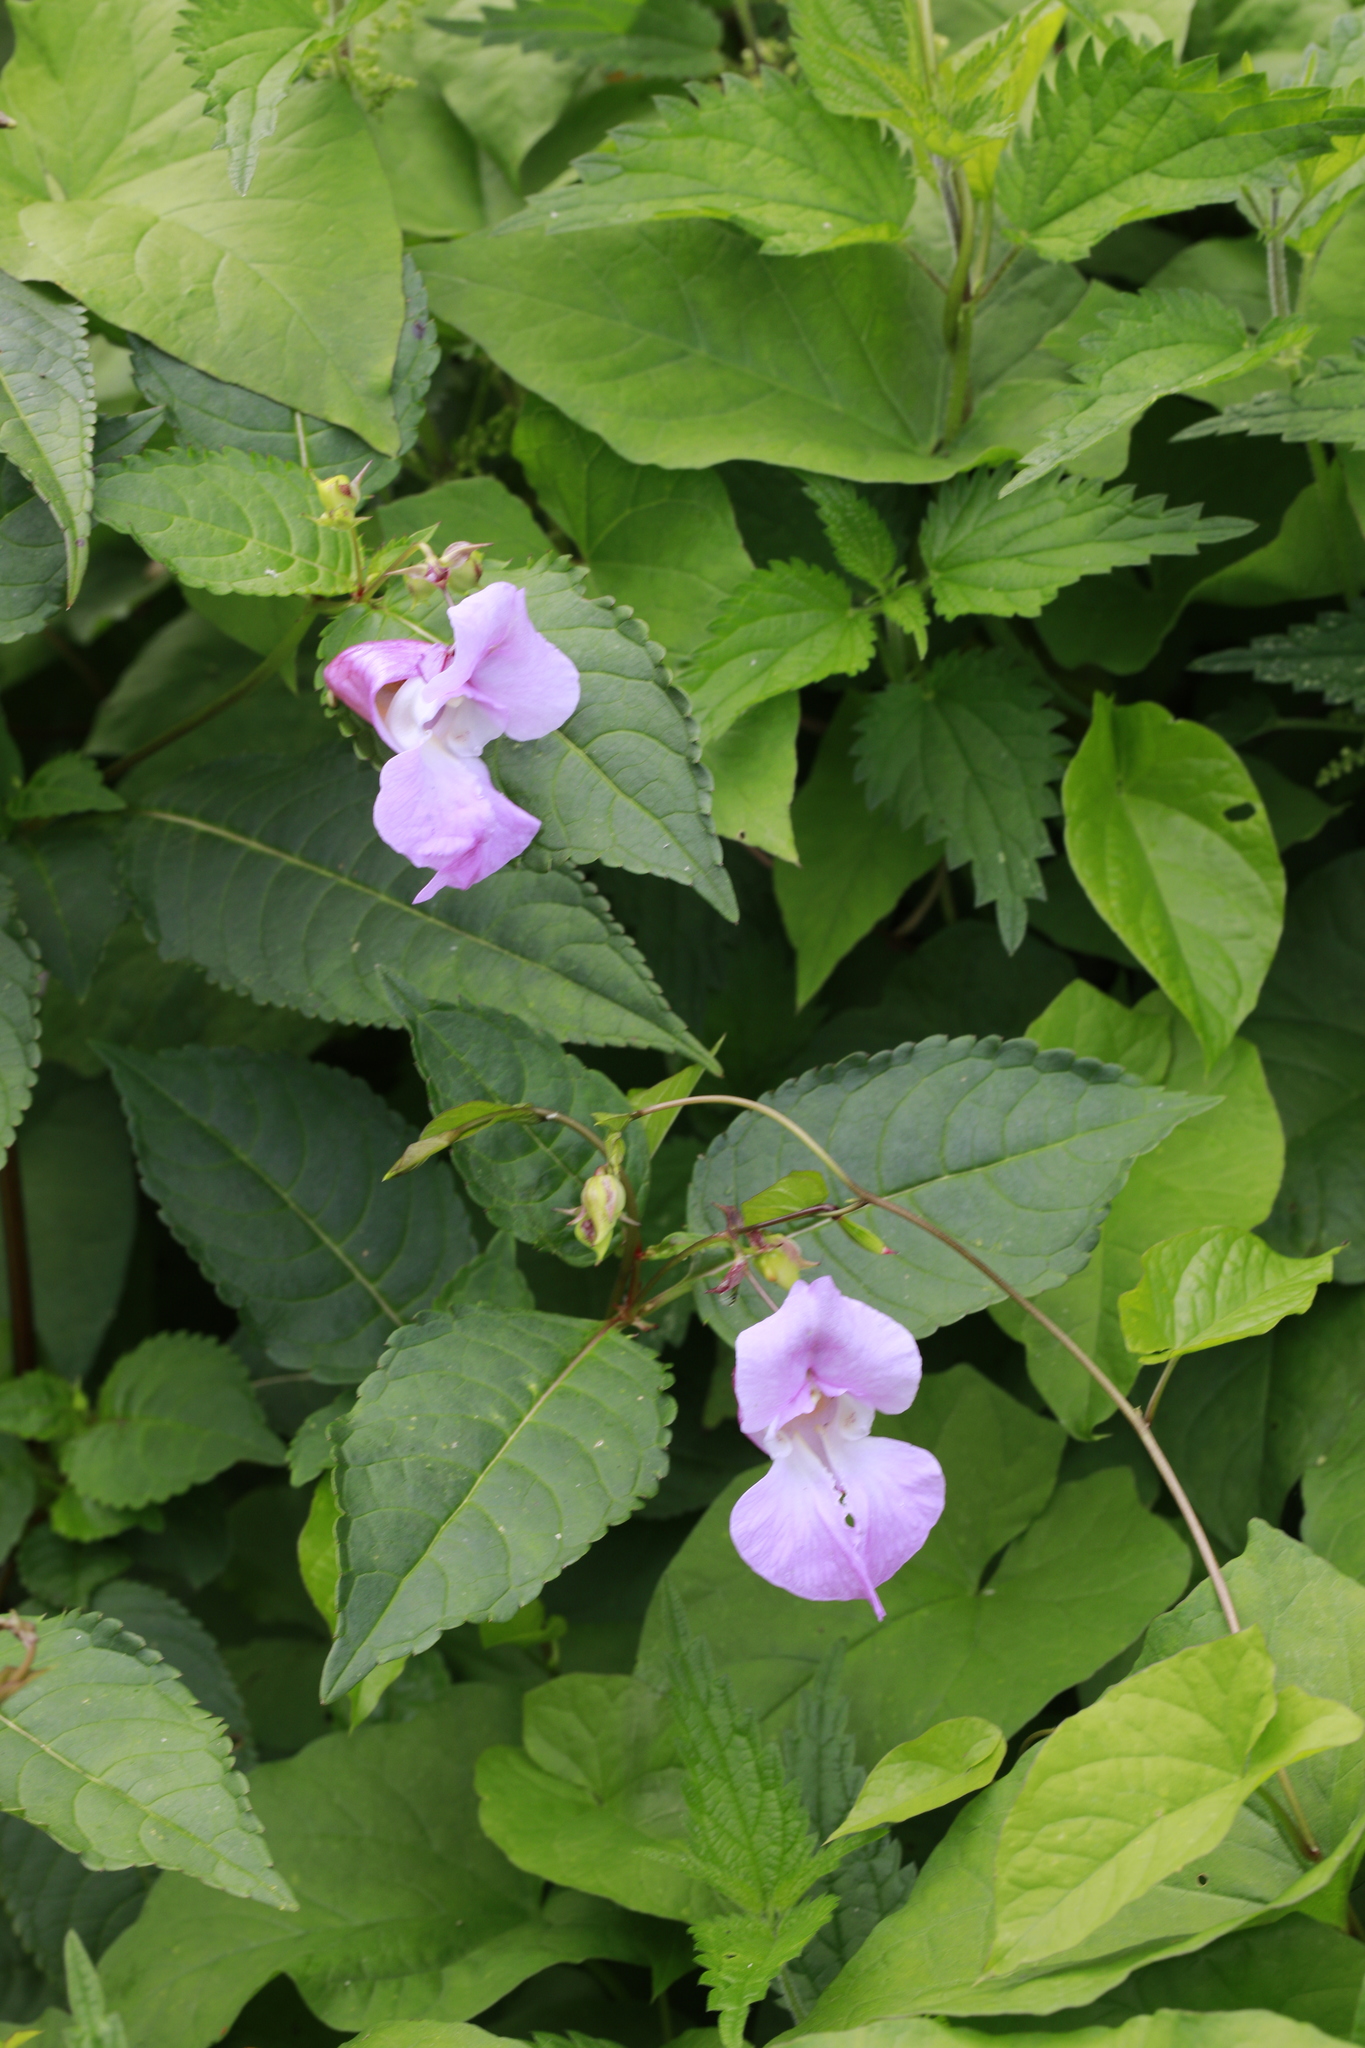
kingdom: Plantae
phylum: Tracheophyta
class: Magnoliopsida
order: Ericales
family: Balsaminaceae
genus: Impatiens
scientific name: Impatiens glandulifera
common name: Himalayan balsam
